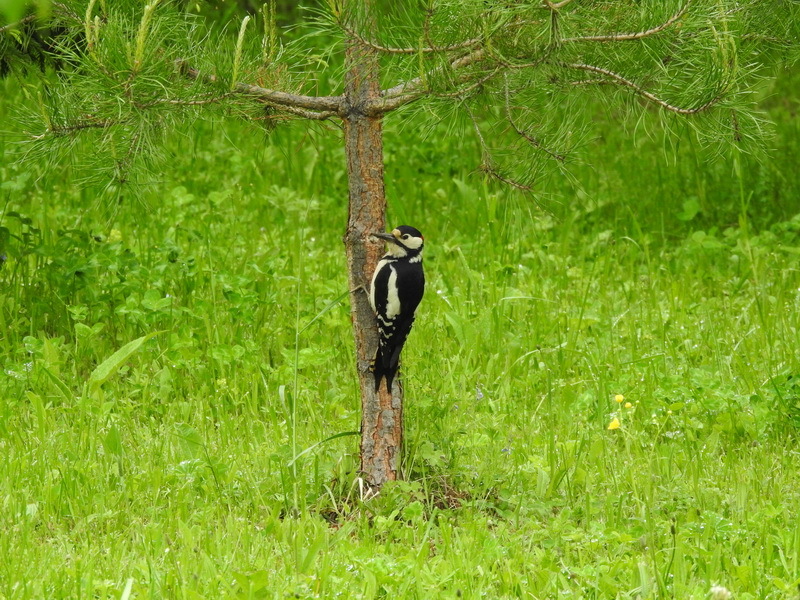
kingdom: Animalia
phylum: Chordata
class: Aves
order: Piciformes
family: Picidae
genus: Dendrocopos
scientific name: Dendrocopos major
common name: Great spotted woodpecker
